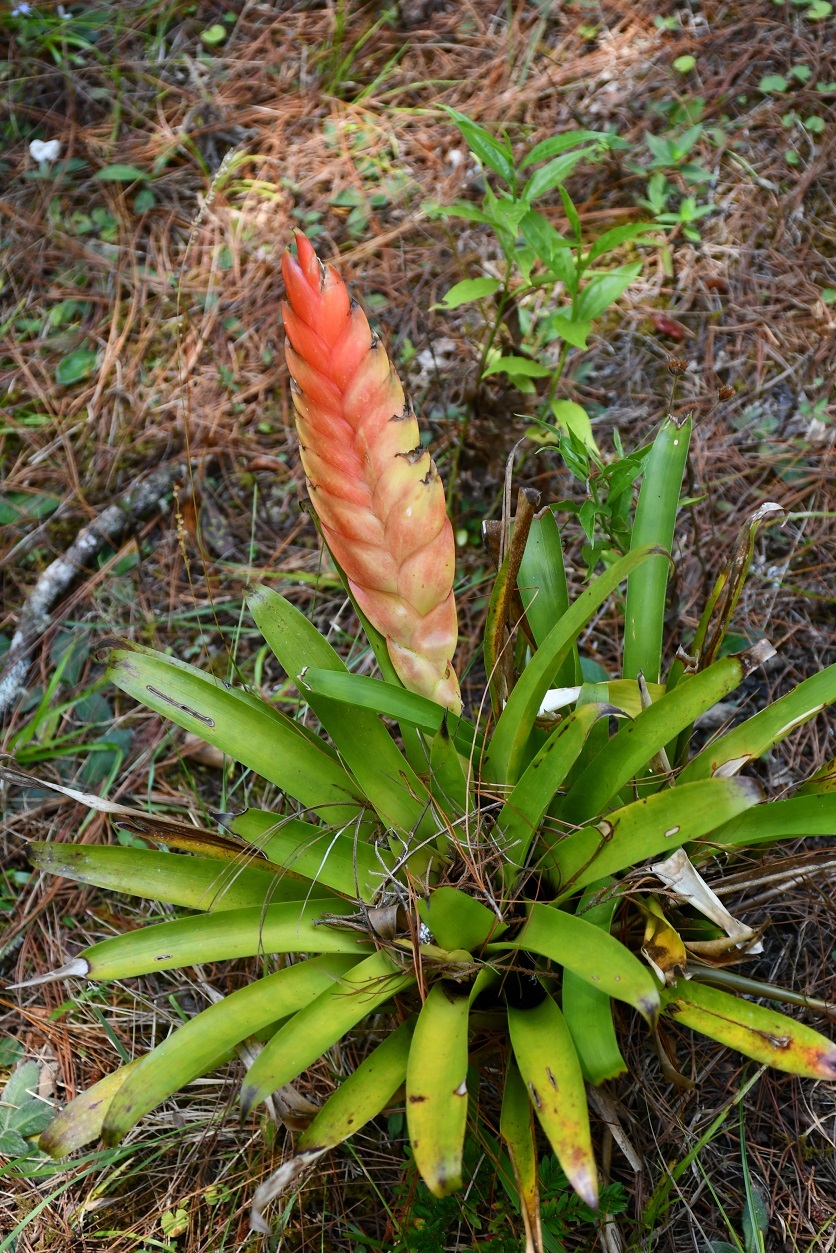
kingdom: Plantae
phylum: Tracheophyta
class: Liliopsida
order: Poales
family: Bromeliaceae
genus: Tillandsia
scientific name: Tillandsia multicaulis
